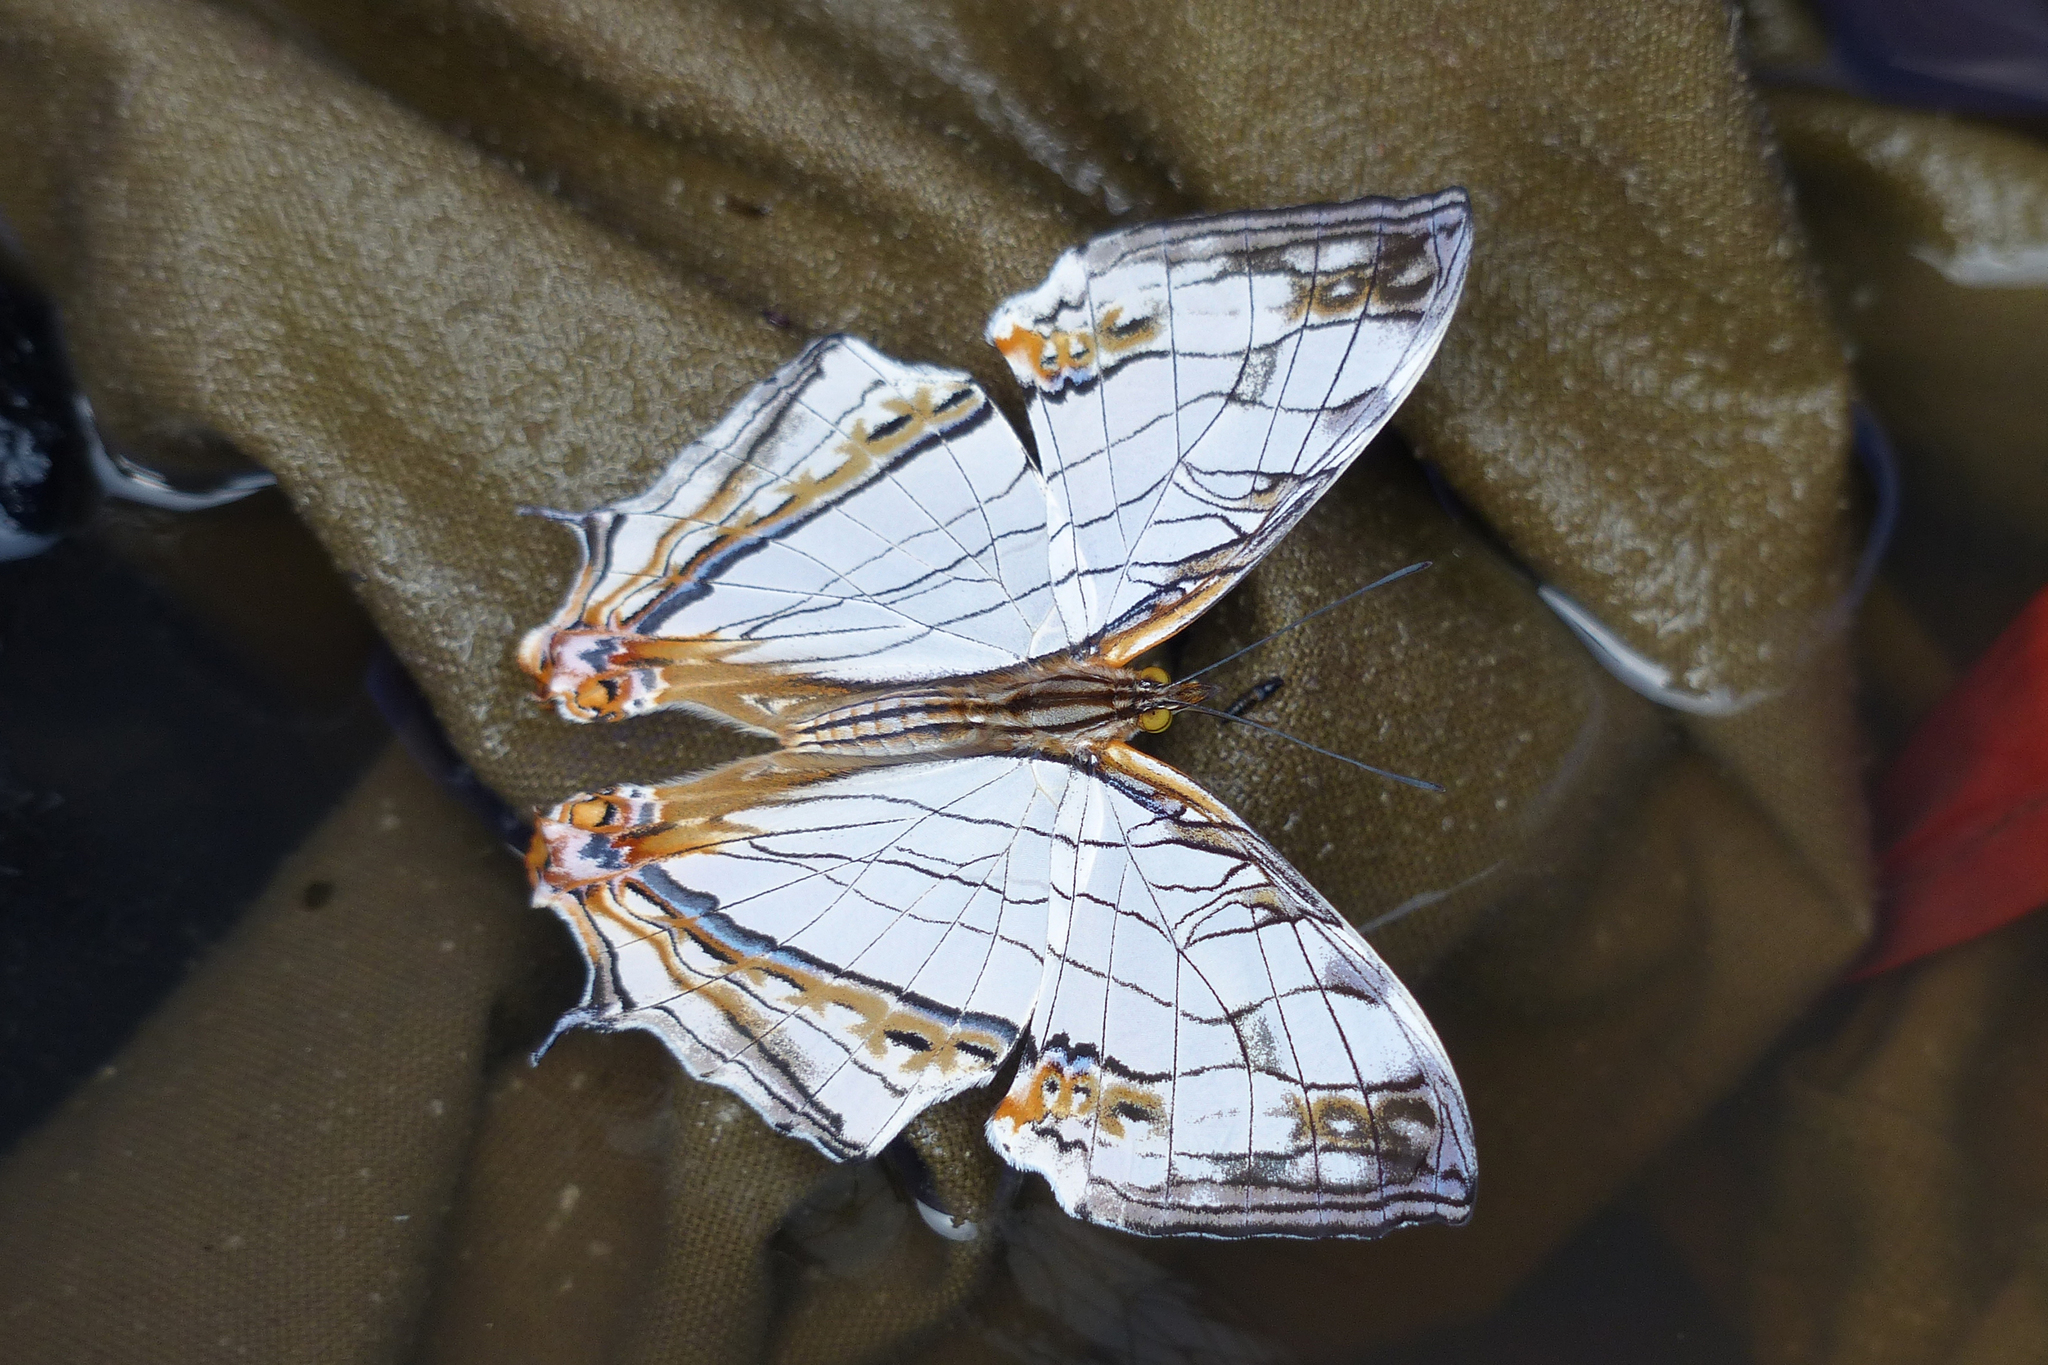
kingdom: Animalia
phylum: Arthropoda
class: Insecta
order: Lepidoptera
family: Nymphalidae
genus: Cyrestis
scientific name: Cyrestis thyodamas
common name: Common mapwing
